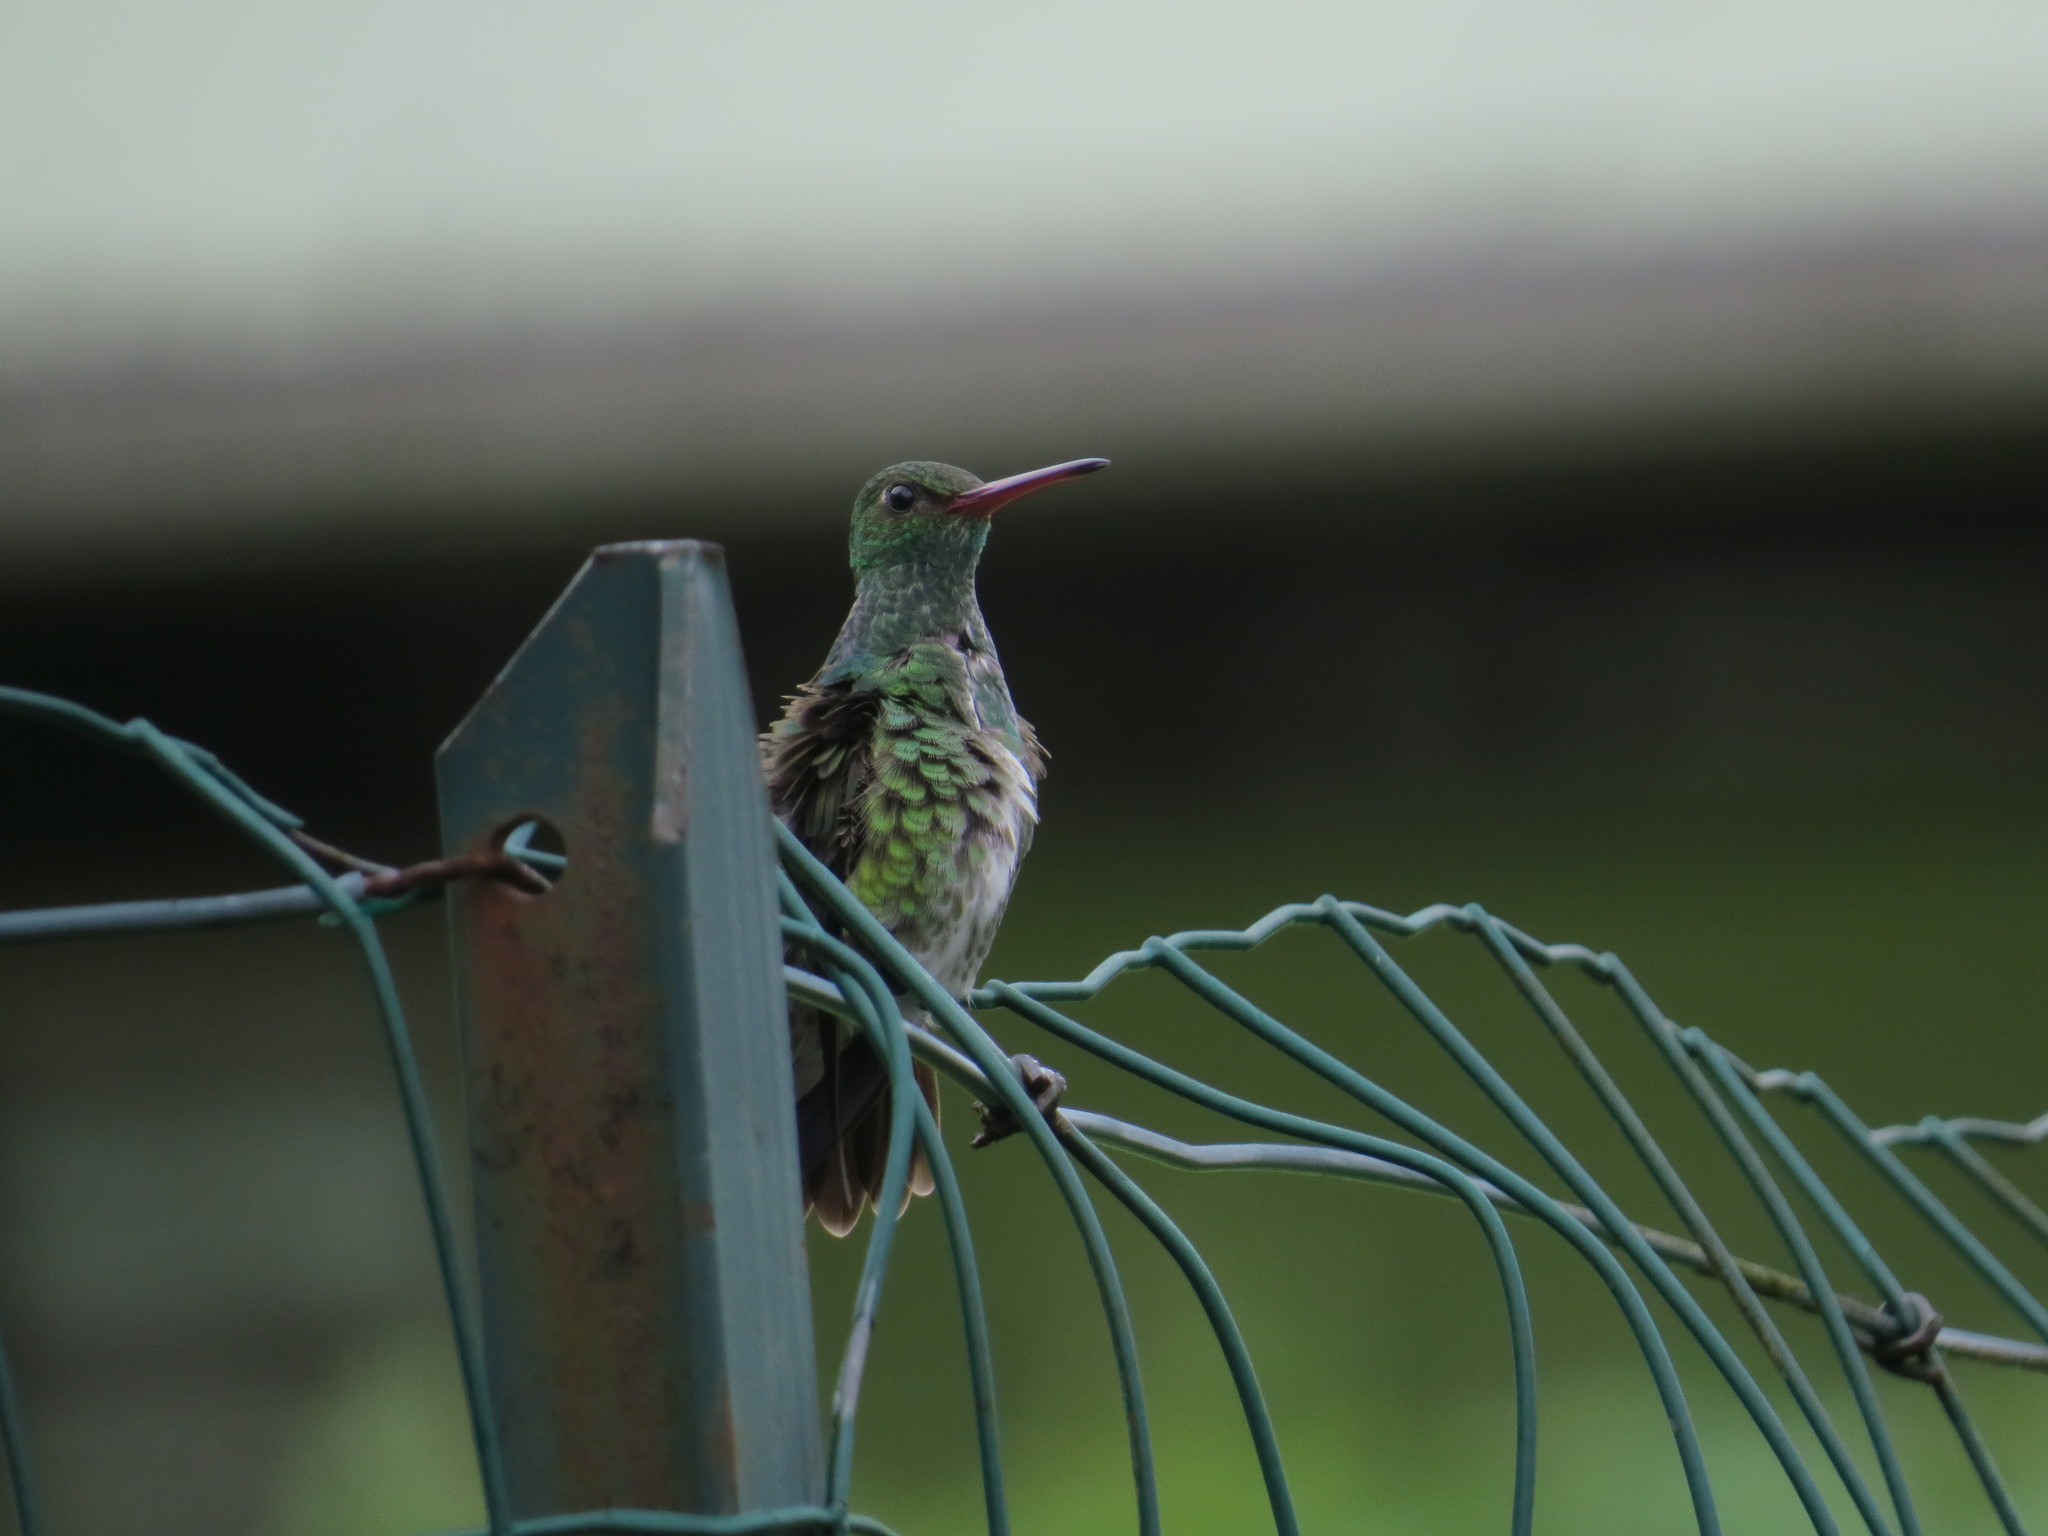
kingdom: Animalia
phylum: Chordata
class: Aves
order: Apodiformes
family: Trochilidae
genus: Chionomesa
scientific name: Chionomesa fimbriata
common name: Glittering-throated emerald
